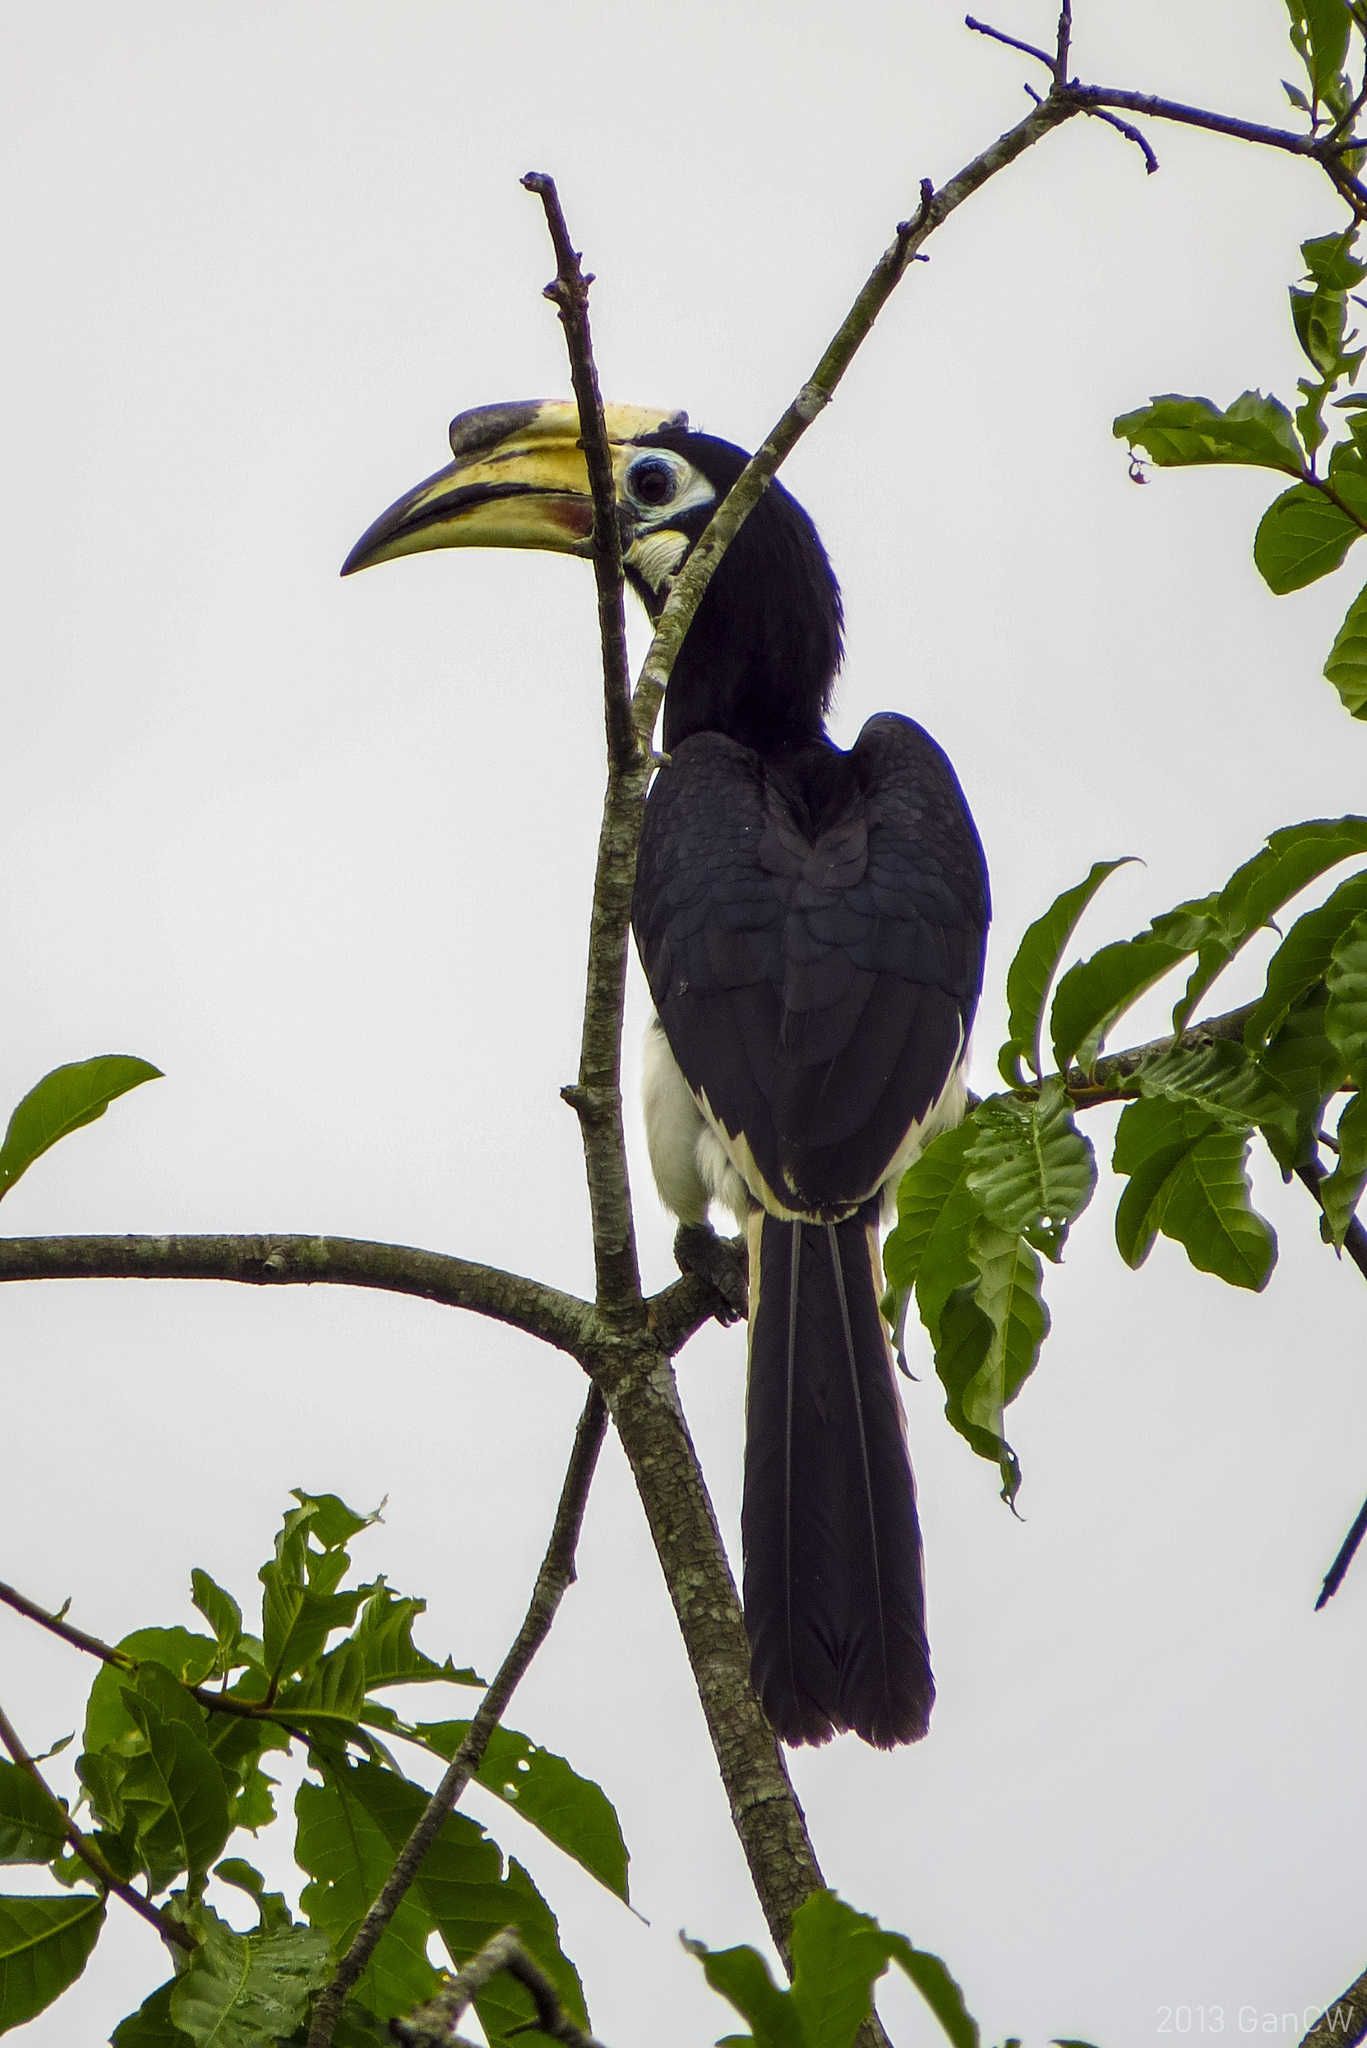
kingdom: Animalia
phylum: Chordata
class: Aves
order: Bucerotiformes
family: Bucerotidae
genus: Anthracoceros
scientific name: Anthracoceros albirostris
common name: Oriental pied-hornbill
